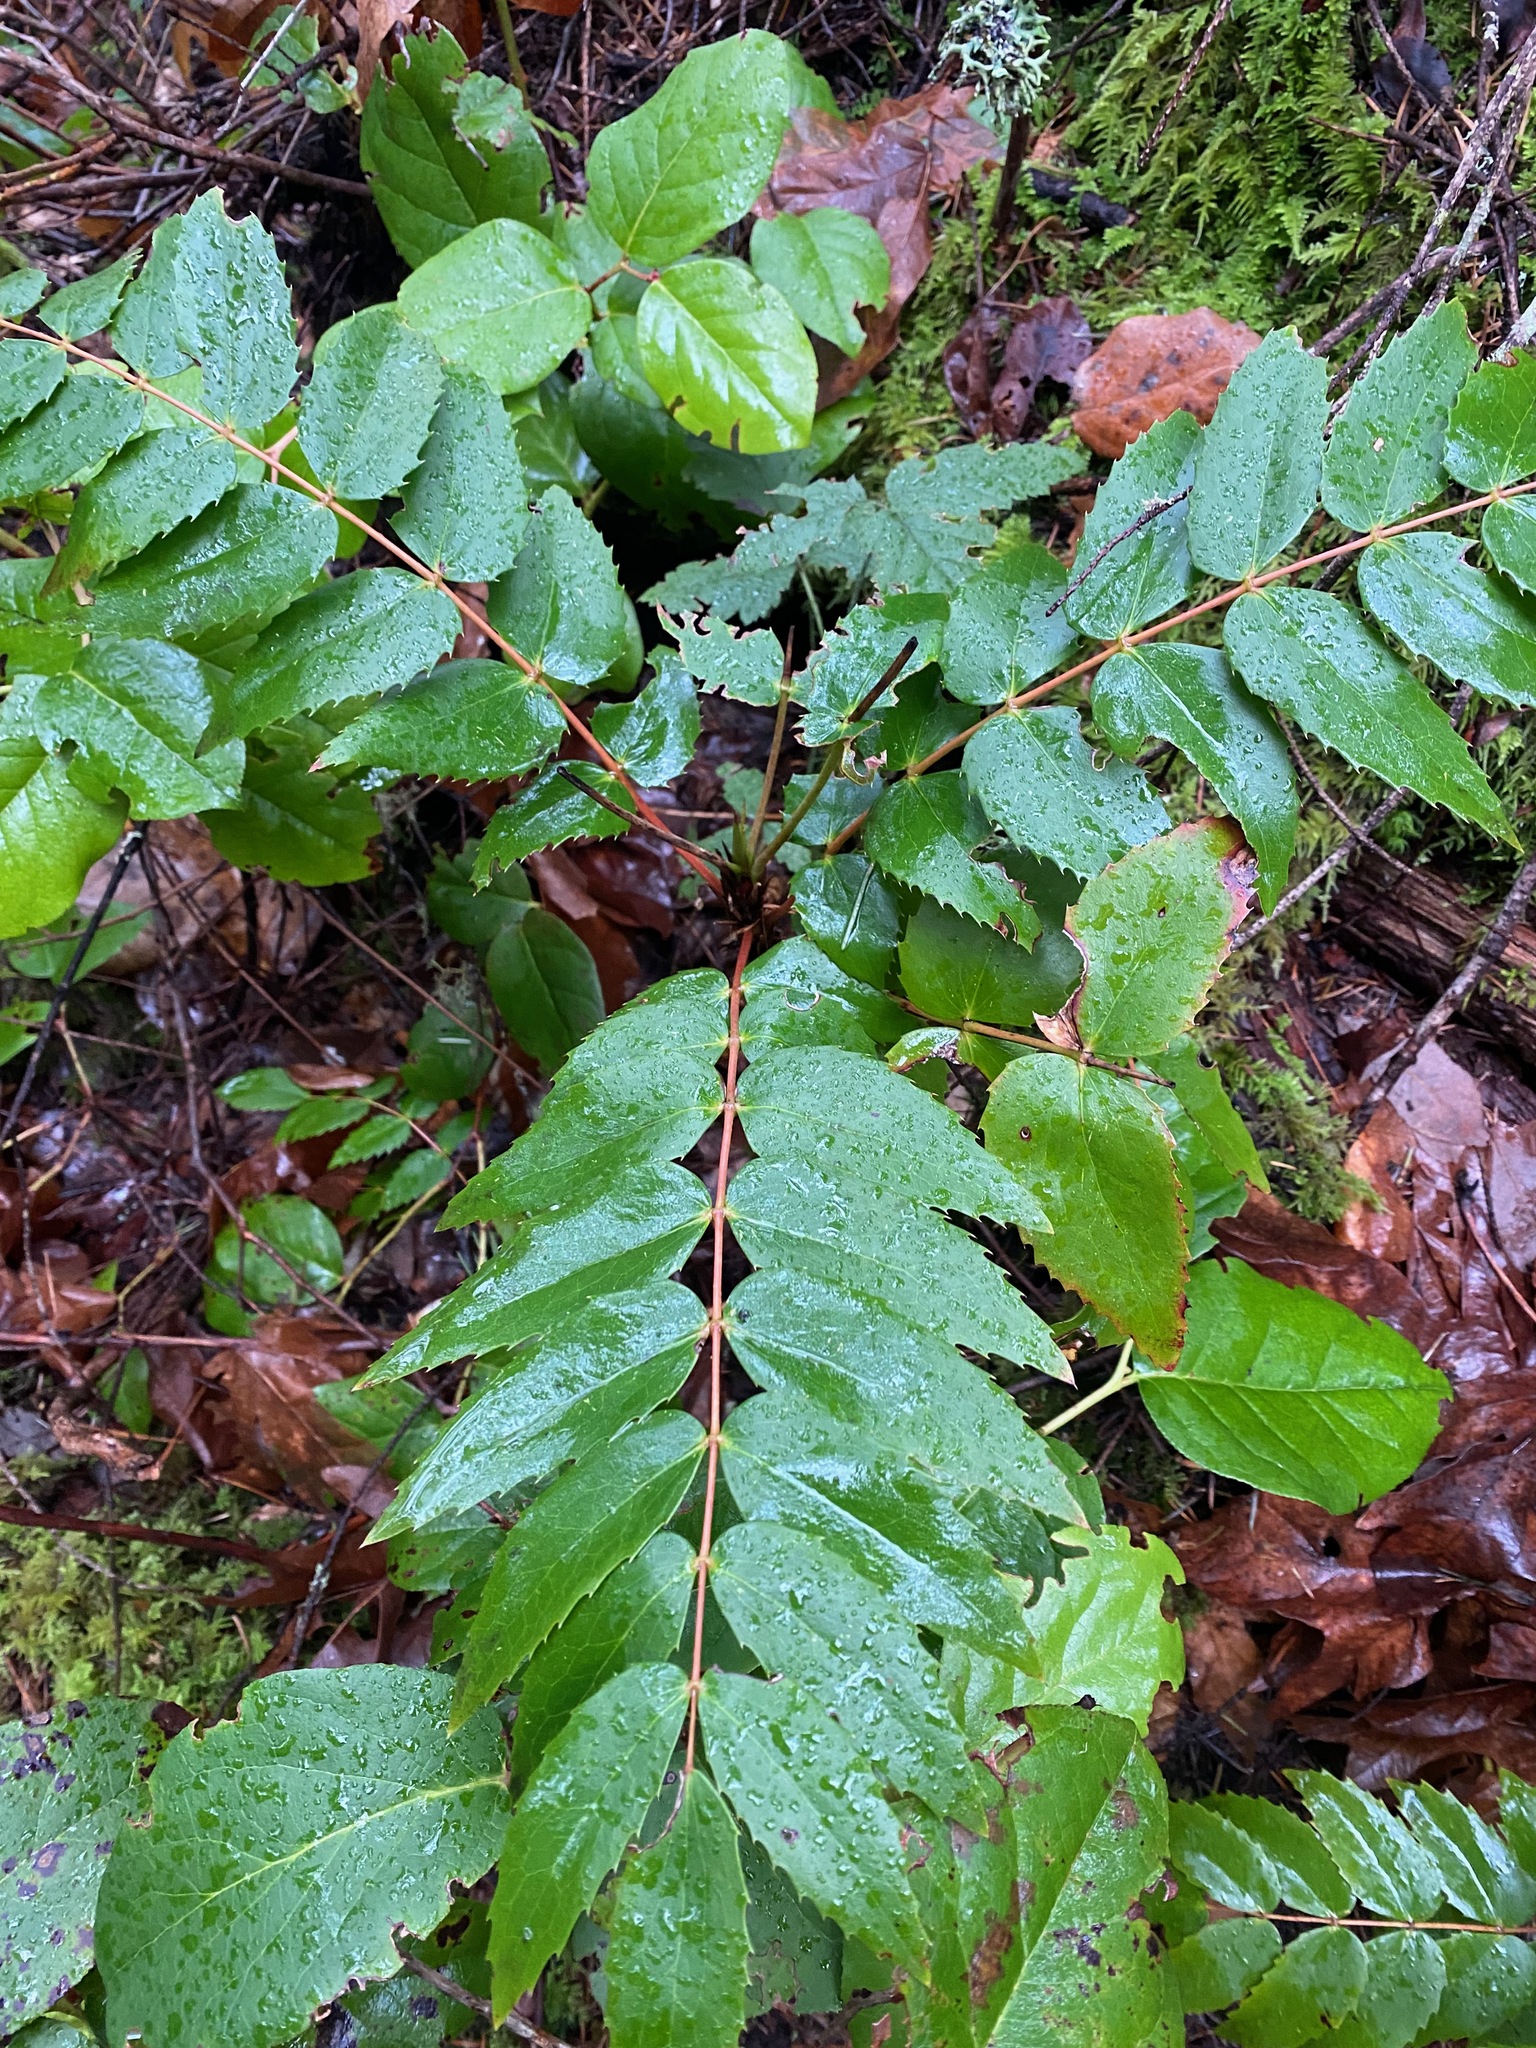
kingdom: Plantae
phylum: Tracheophyta
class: Magnoliopsida
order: Ranunculales
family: Berberidaceae
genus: Mahonia
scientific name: Mahonia nervosa
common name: Cascade oregon-grape
